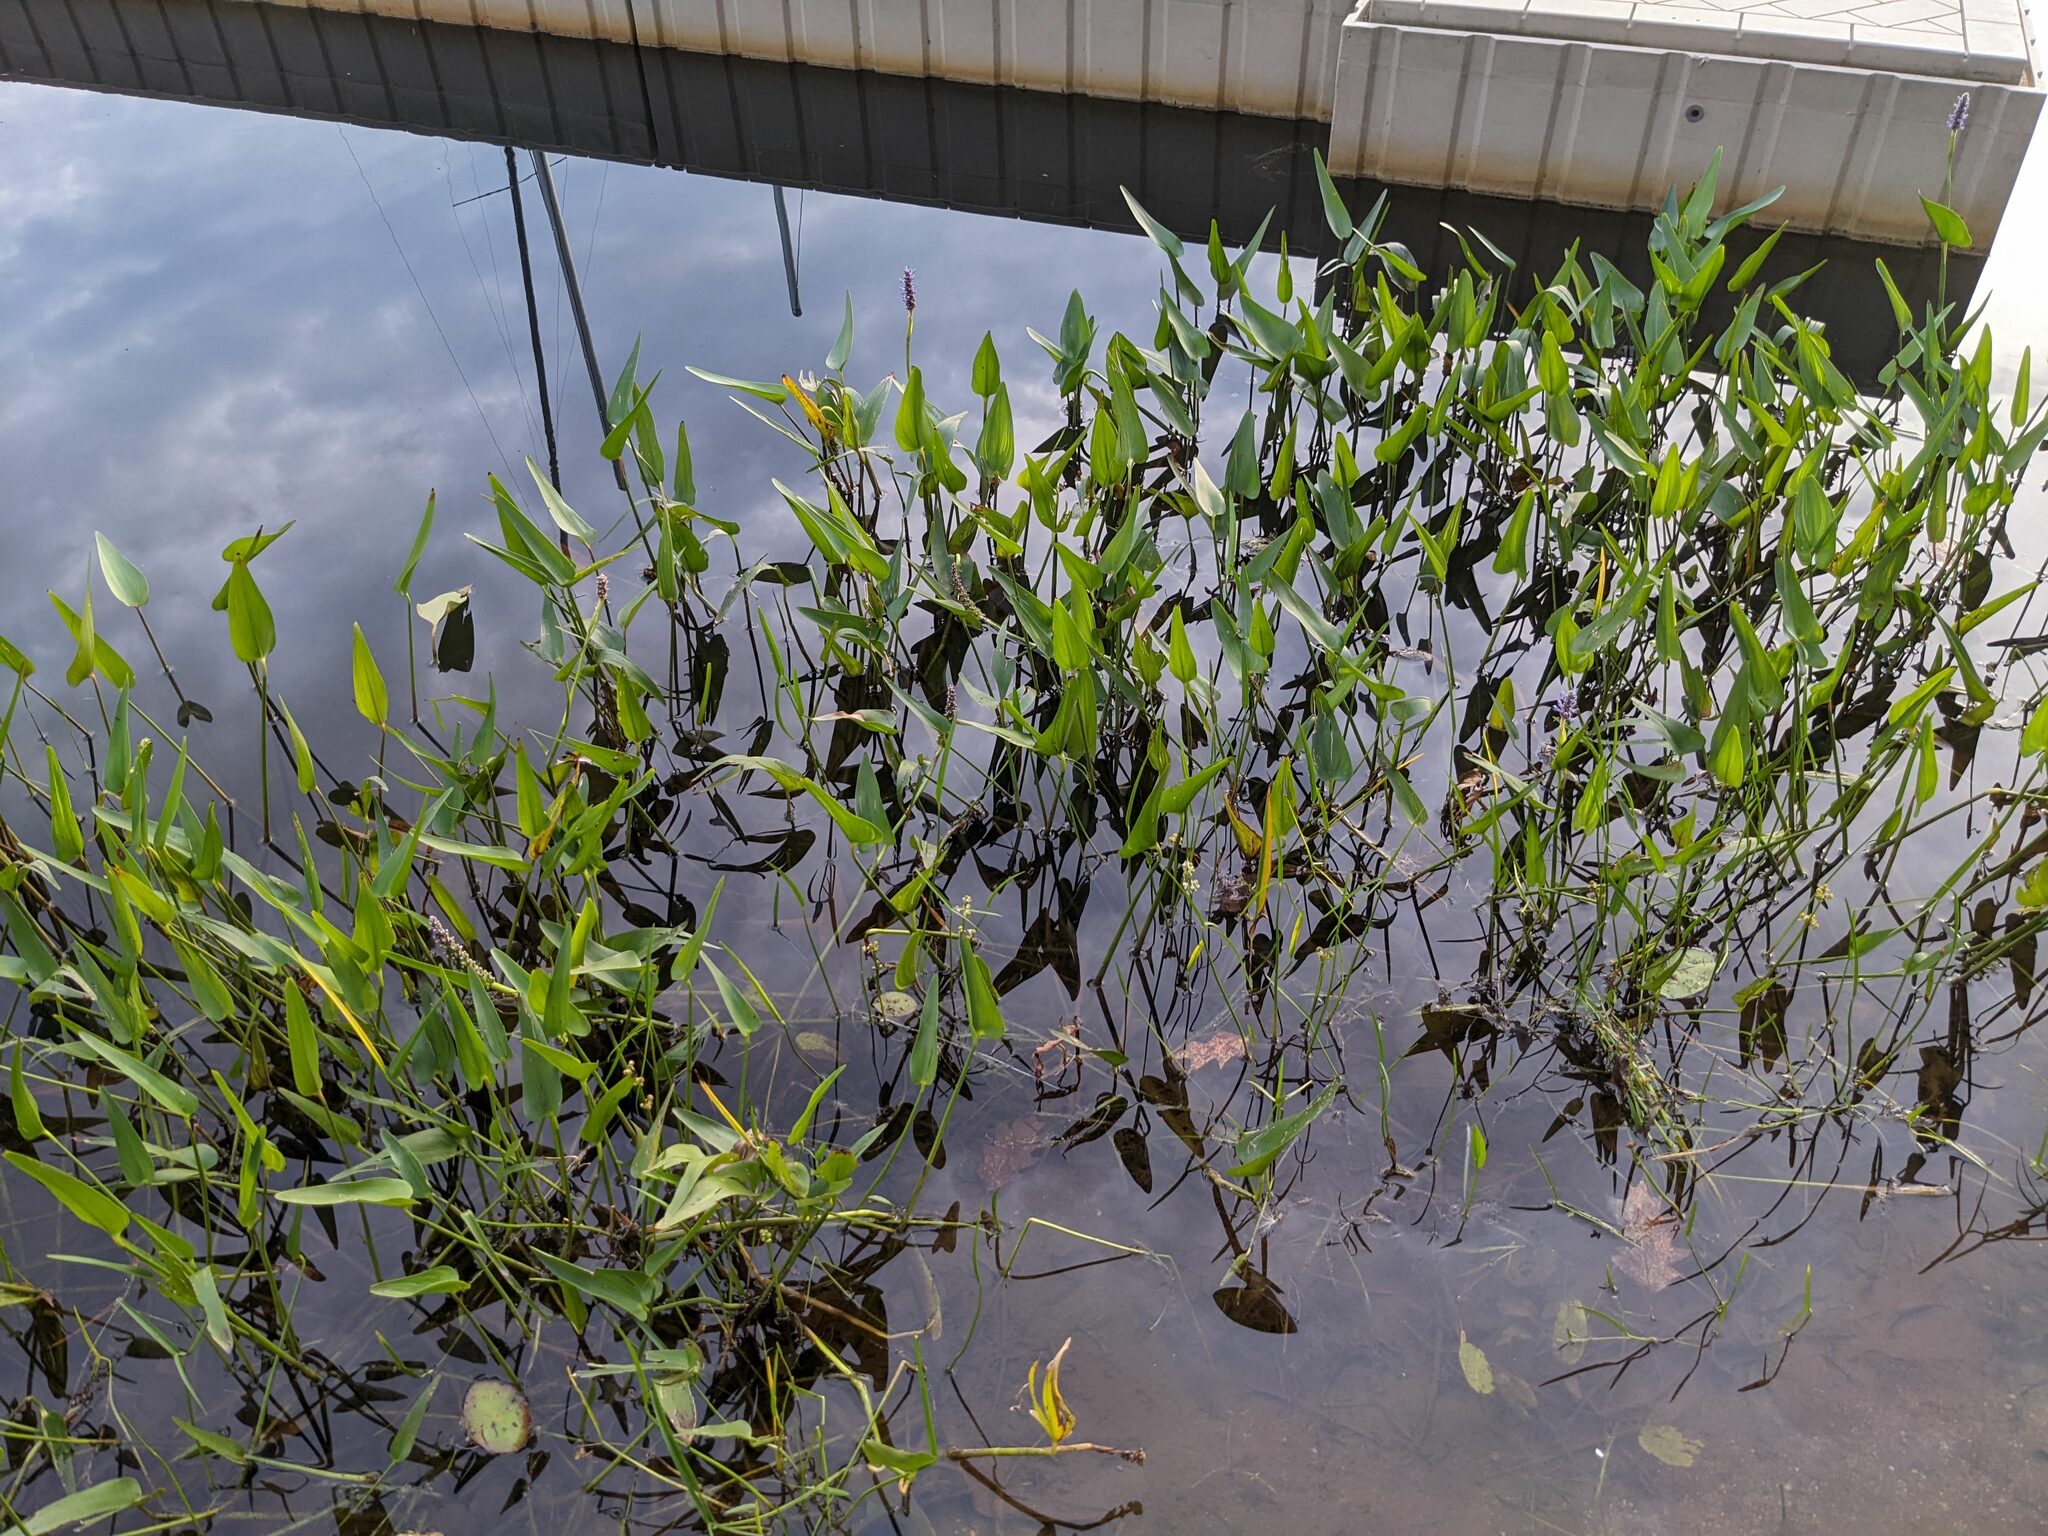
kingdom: Plantae
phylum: Tracheophyta
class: Liliopsida
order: Commelinales
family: Pontederiaceae
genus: Pontederia
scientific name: Pontederia cordata
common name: Pickerelweed
